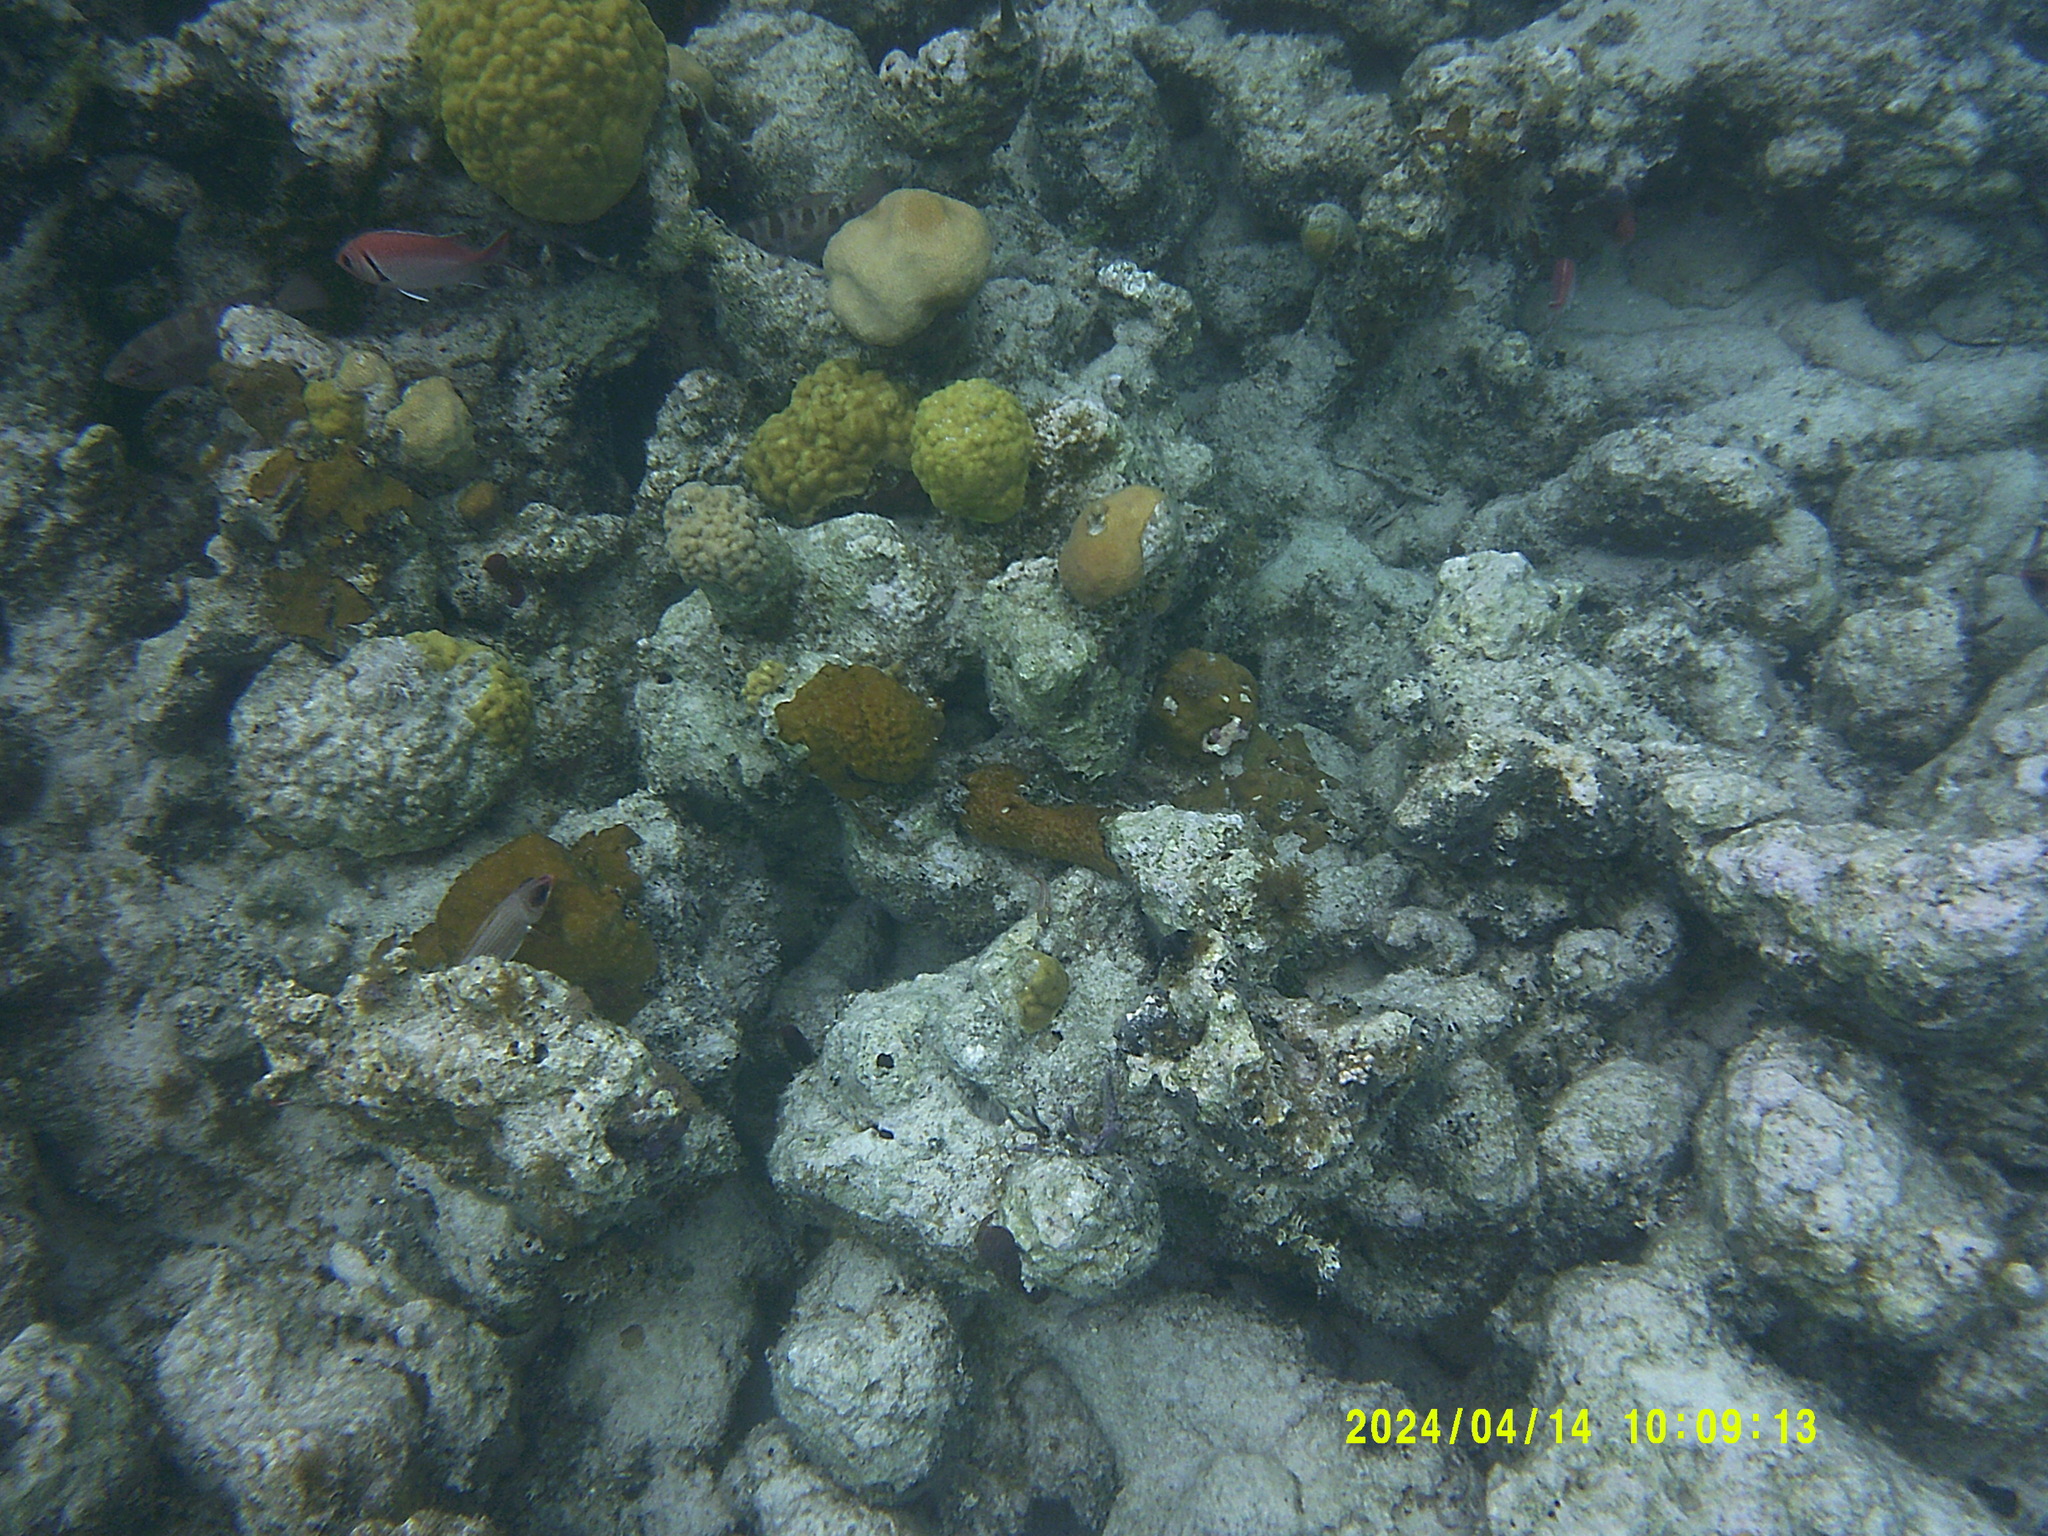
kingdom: Animalia
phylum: Chordata
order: Beryciformes
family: Holocentridae
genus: Myripristis
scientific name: Myripristis jacobus
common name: Blackbar soldierfish
